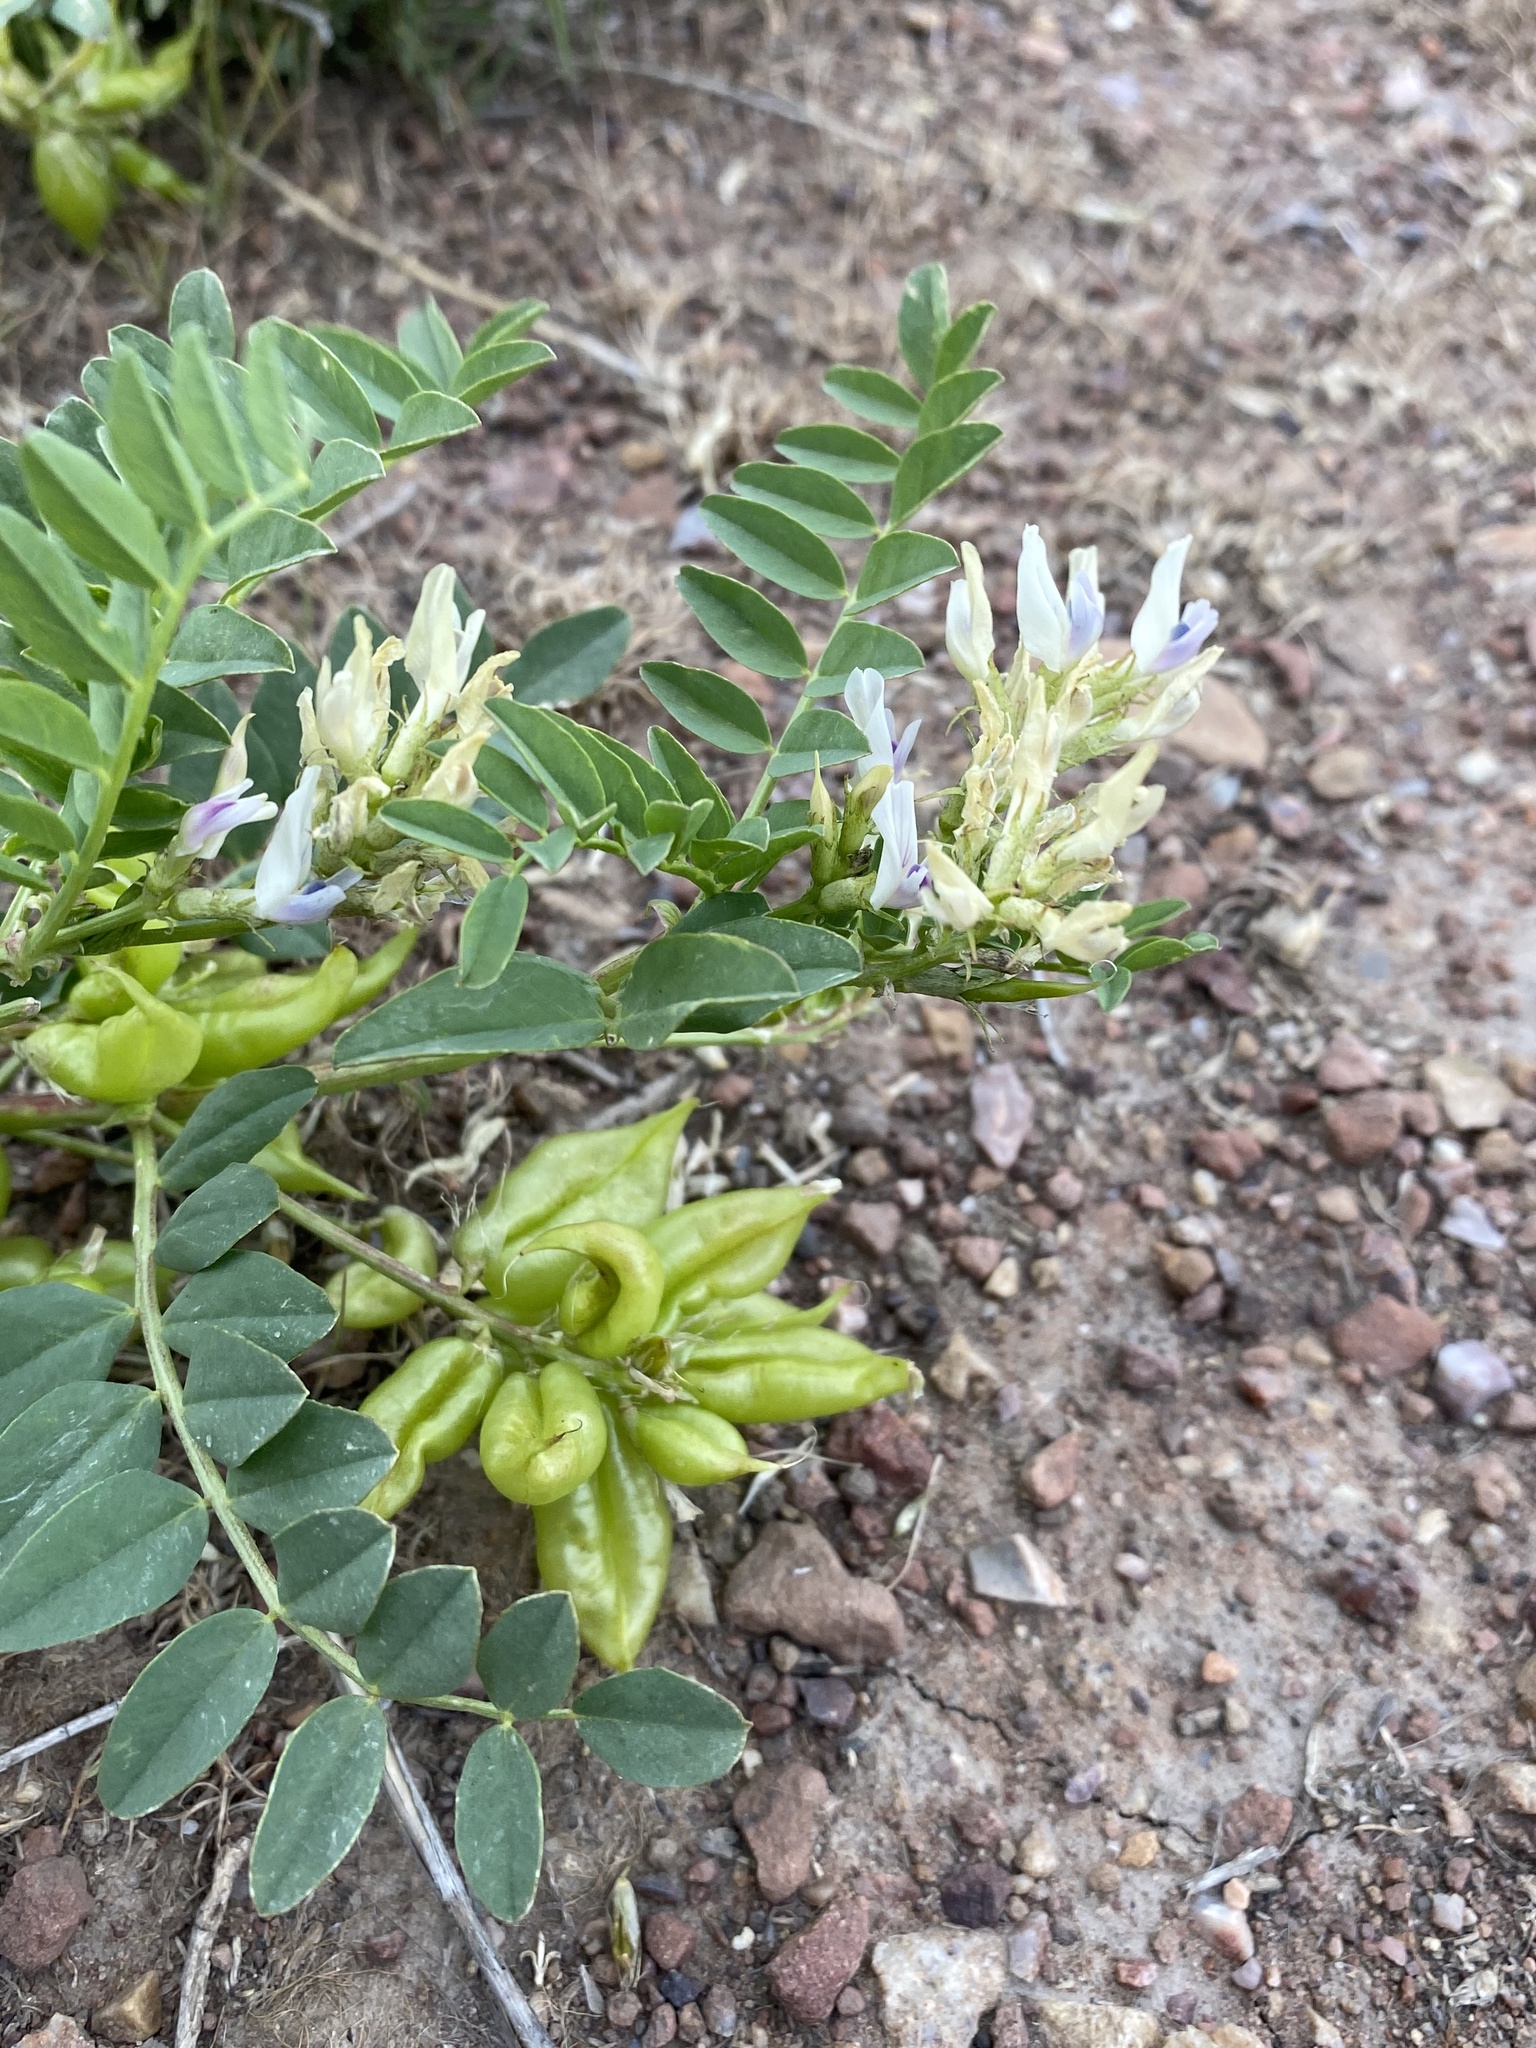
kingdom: Plantae
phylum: Tracheophyta
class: Magnoliopsida
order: Fabales
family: Fabaceae
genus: Astragalus
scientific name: Astragalus lentiginosus
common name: Freckled milkvetch
